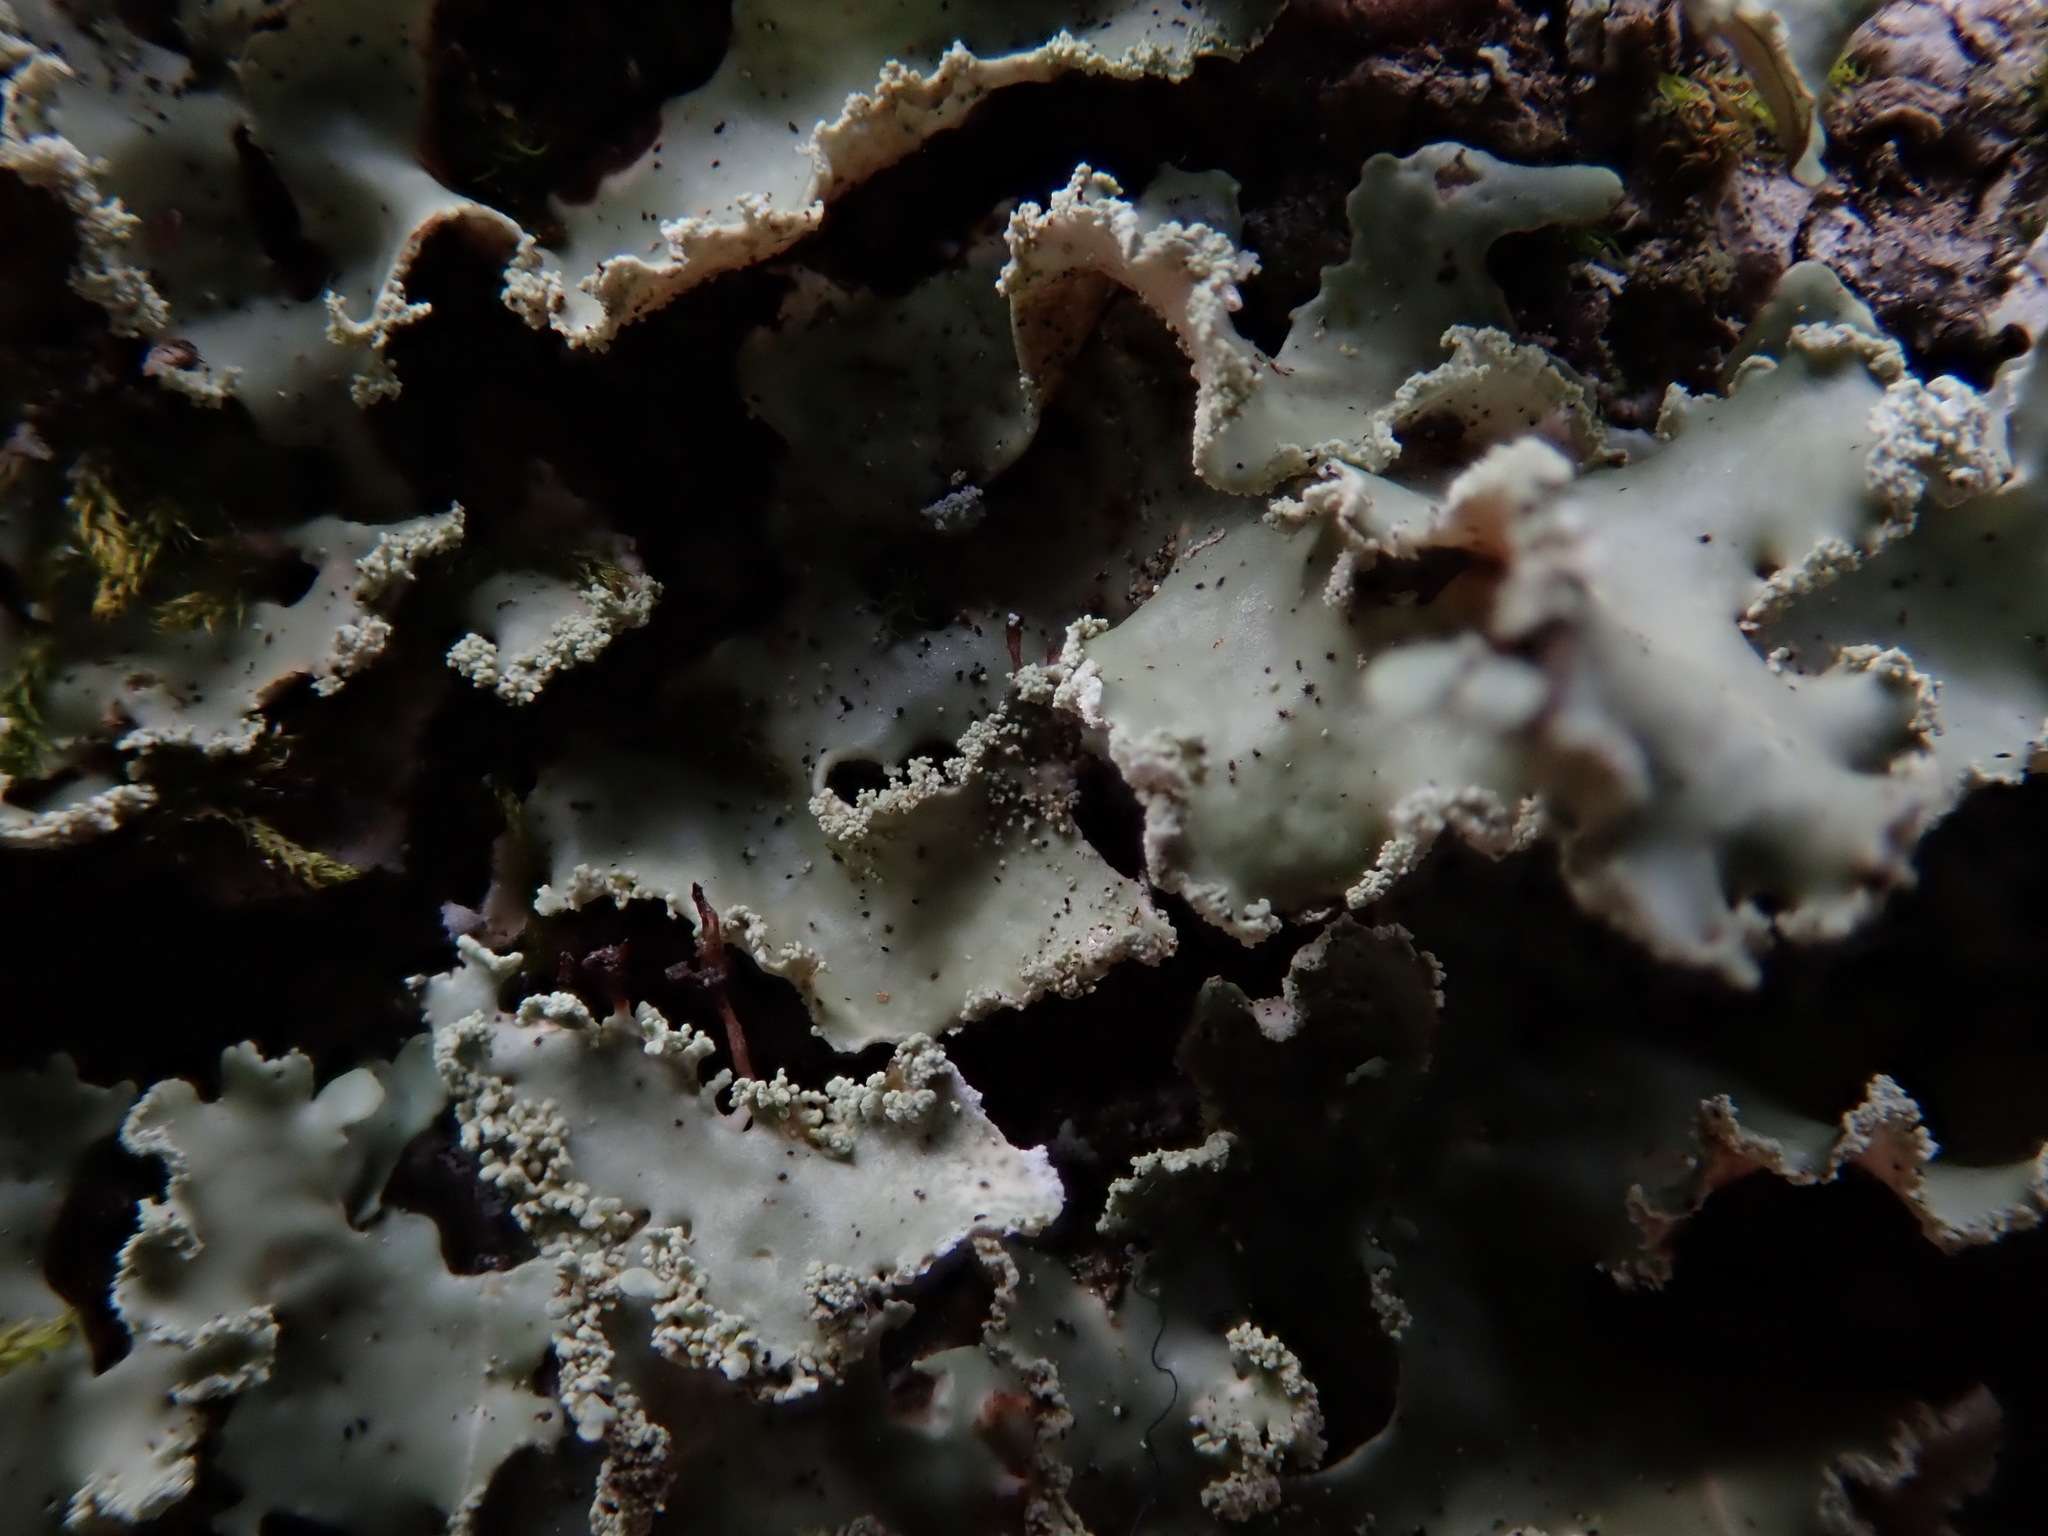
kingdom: Fungi
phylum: Ascomycota
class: Lecanoromycetes
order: Lecanorales
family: Parmeliaceae
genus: Usnocetraria
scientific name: Usnocetraria oakesiana
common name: Yellow ribbon lichen
